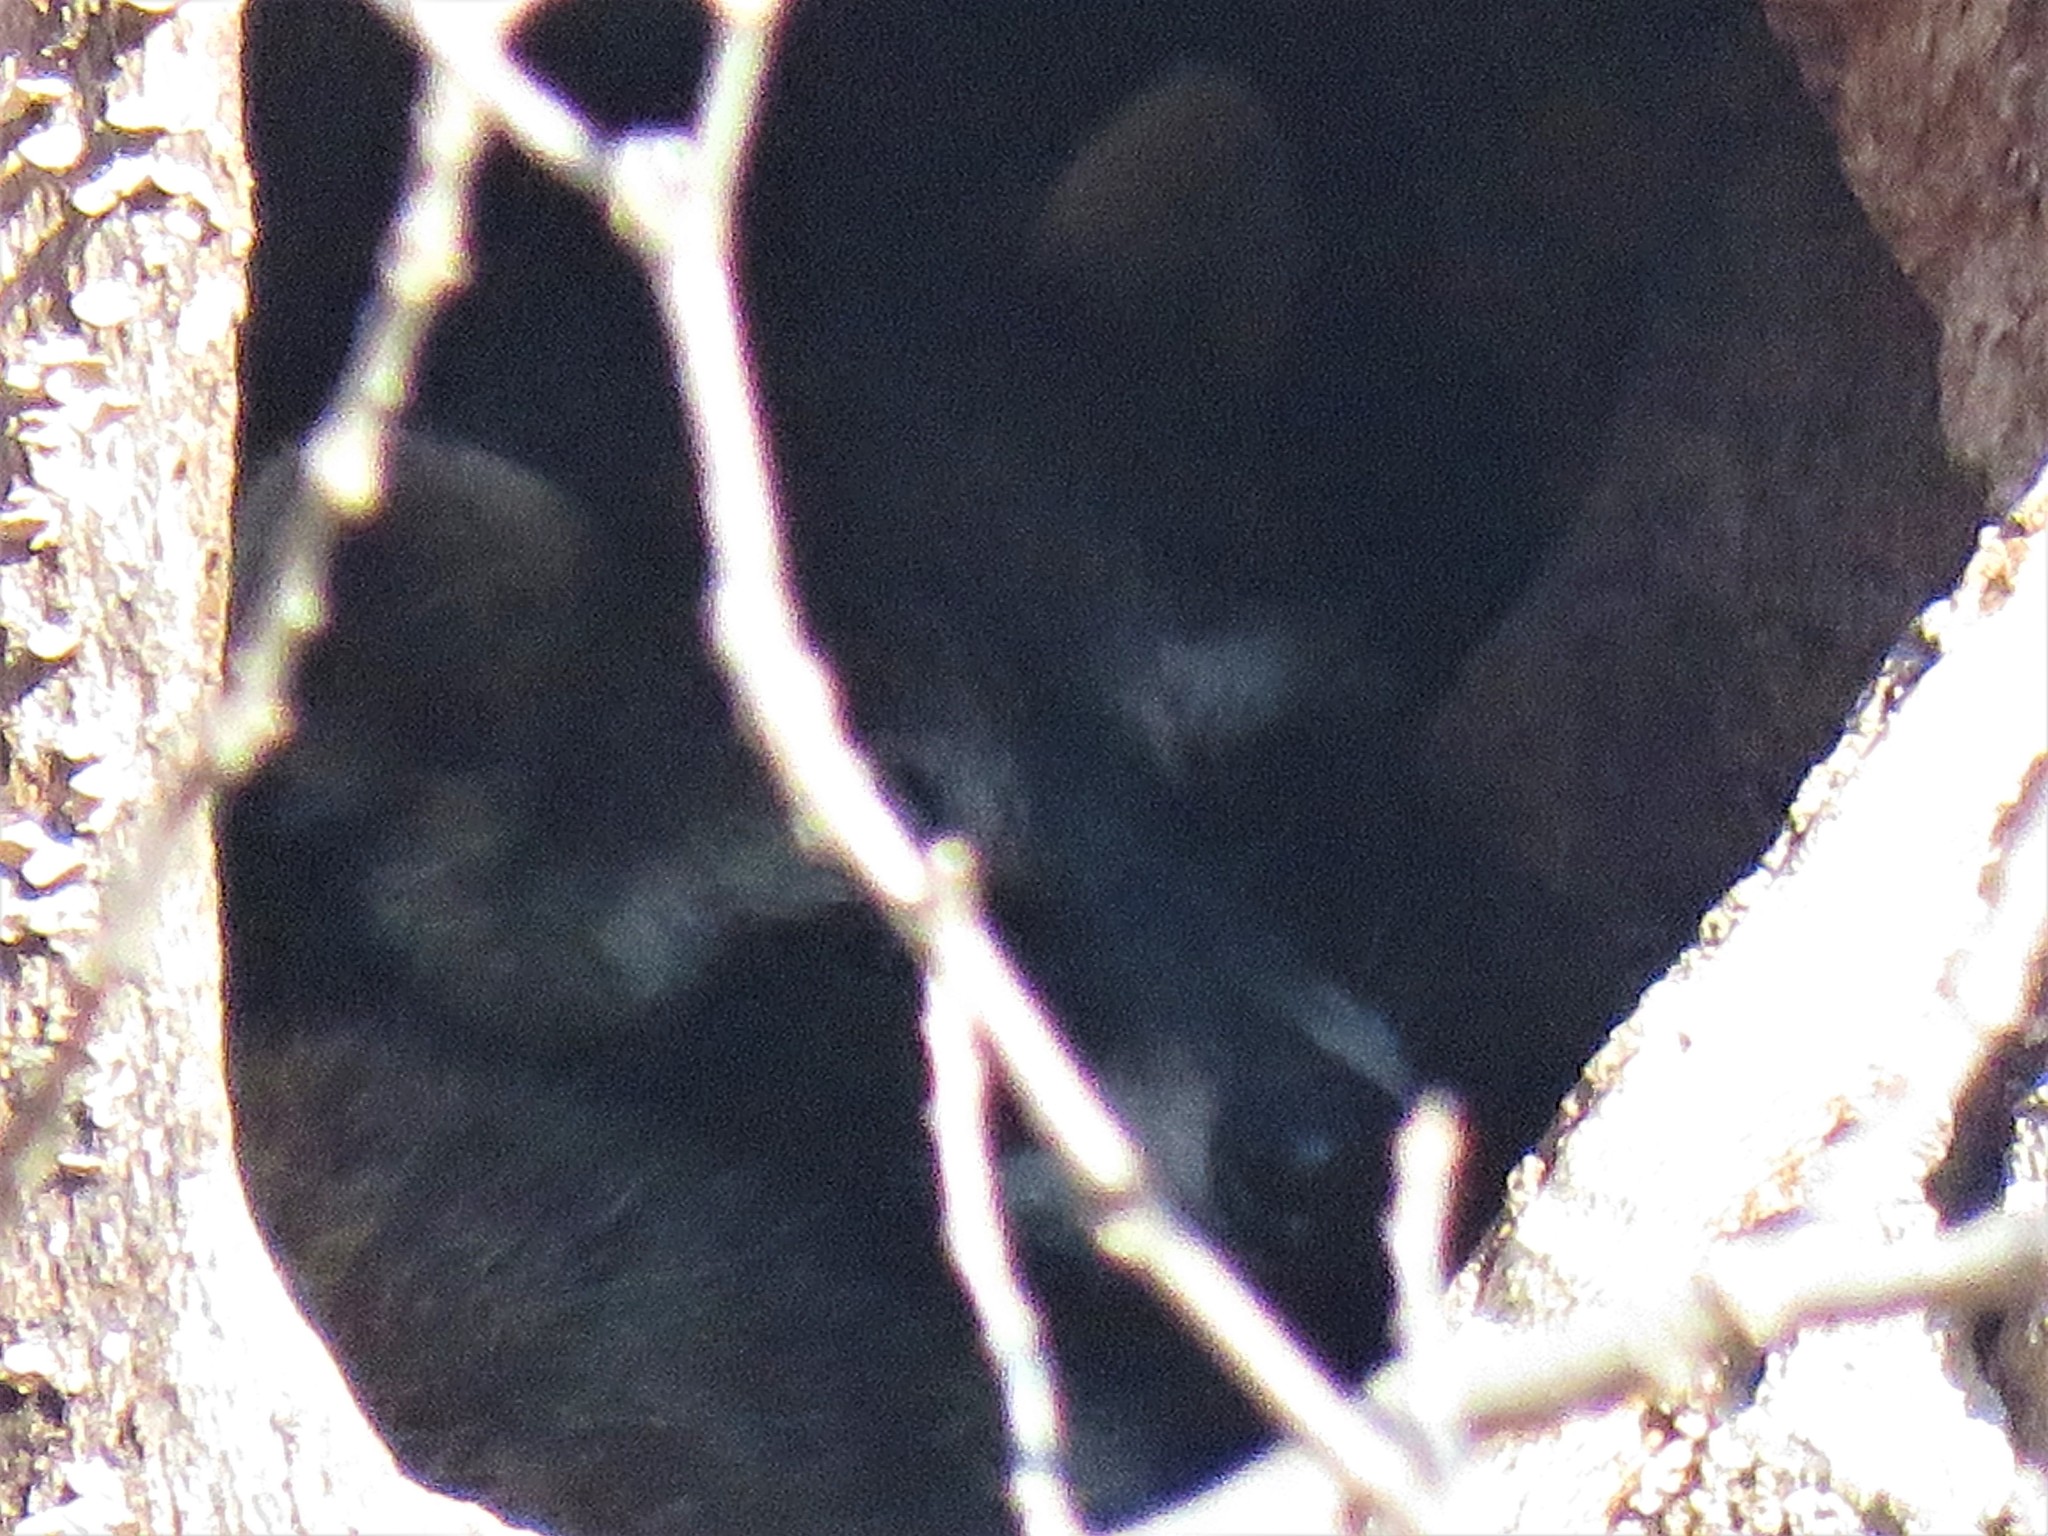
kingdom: Animalia
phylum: Chordata
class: Mammalia
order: Carnivora
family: Procyonidae
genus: Procyon
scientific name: Procyon lotor
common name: Raccoon
